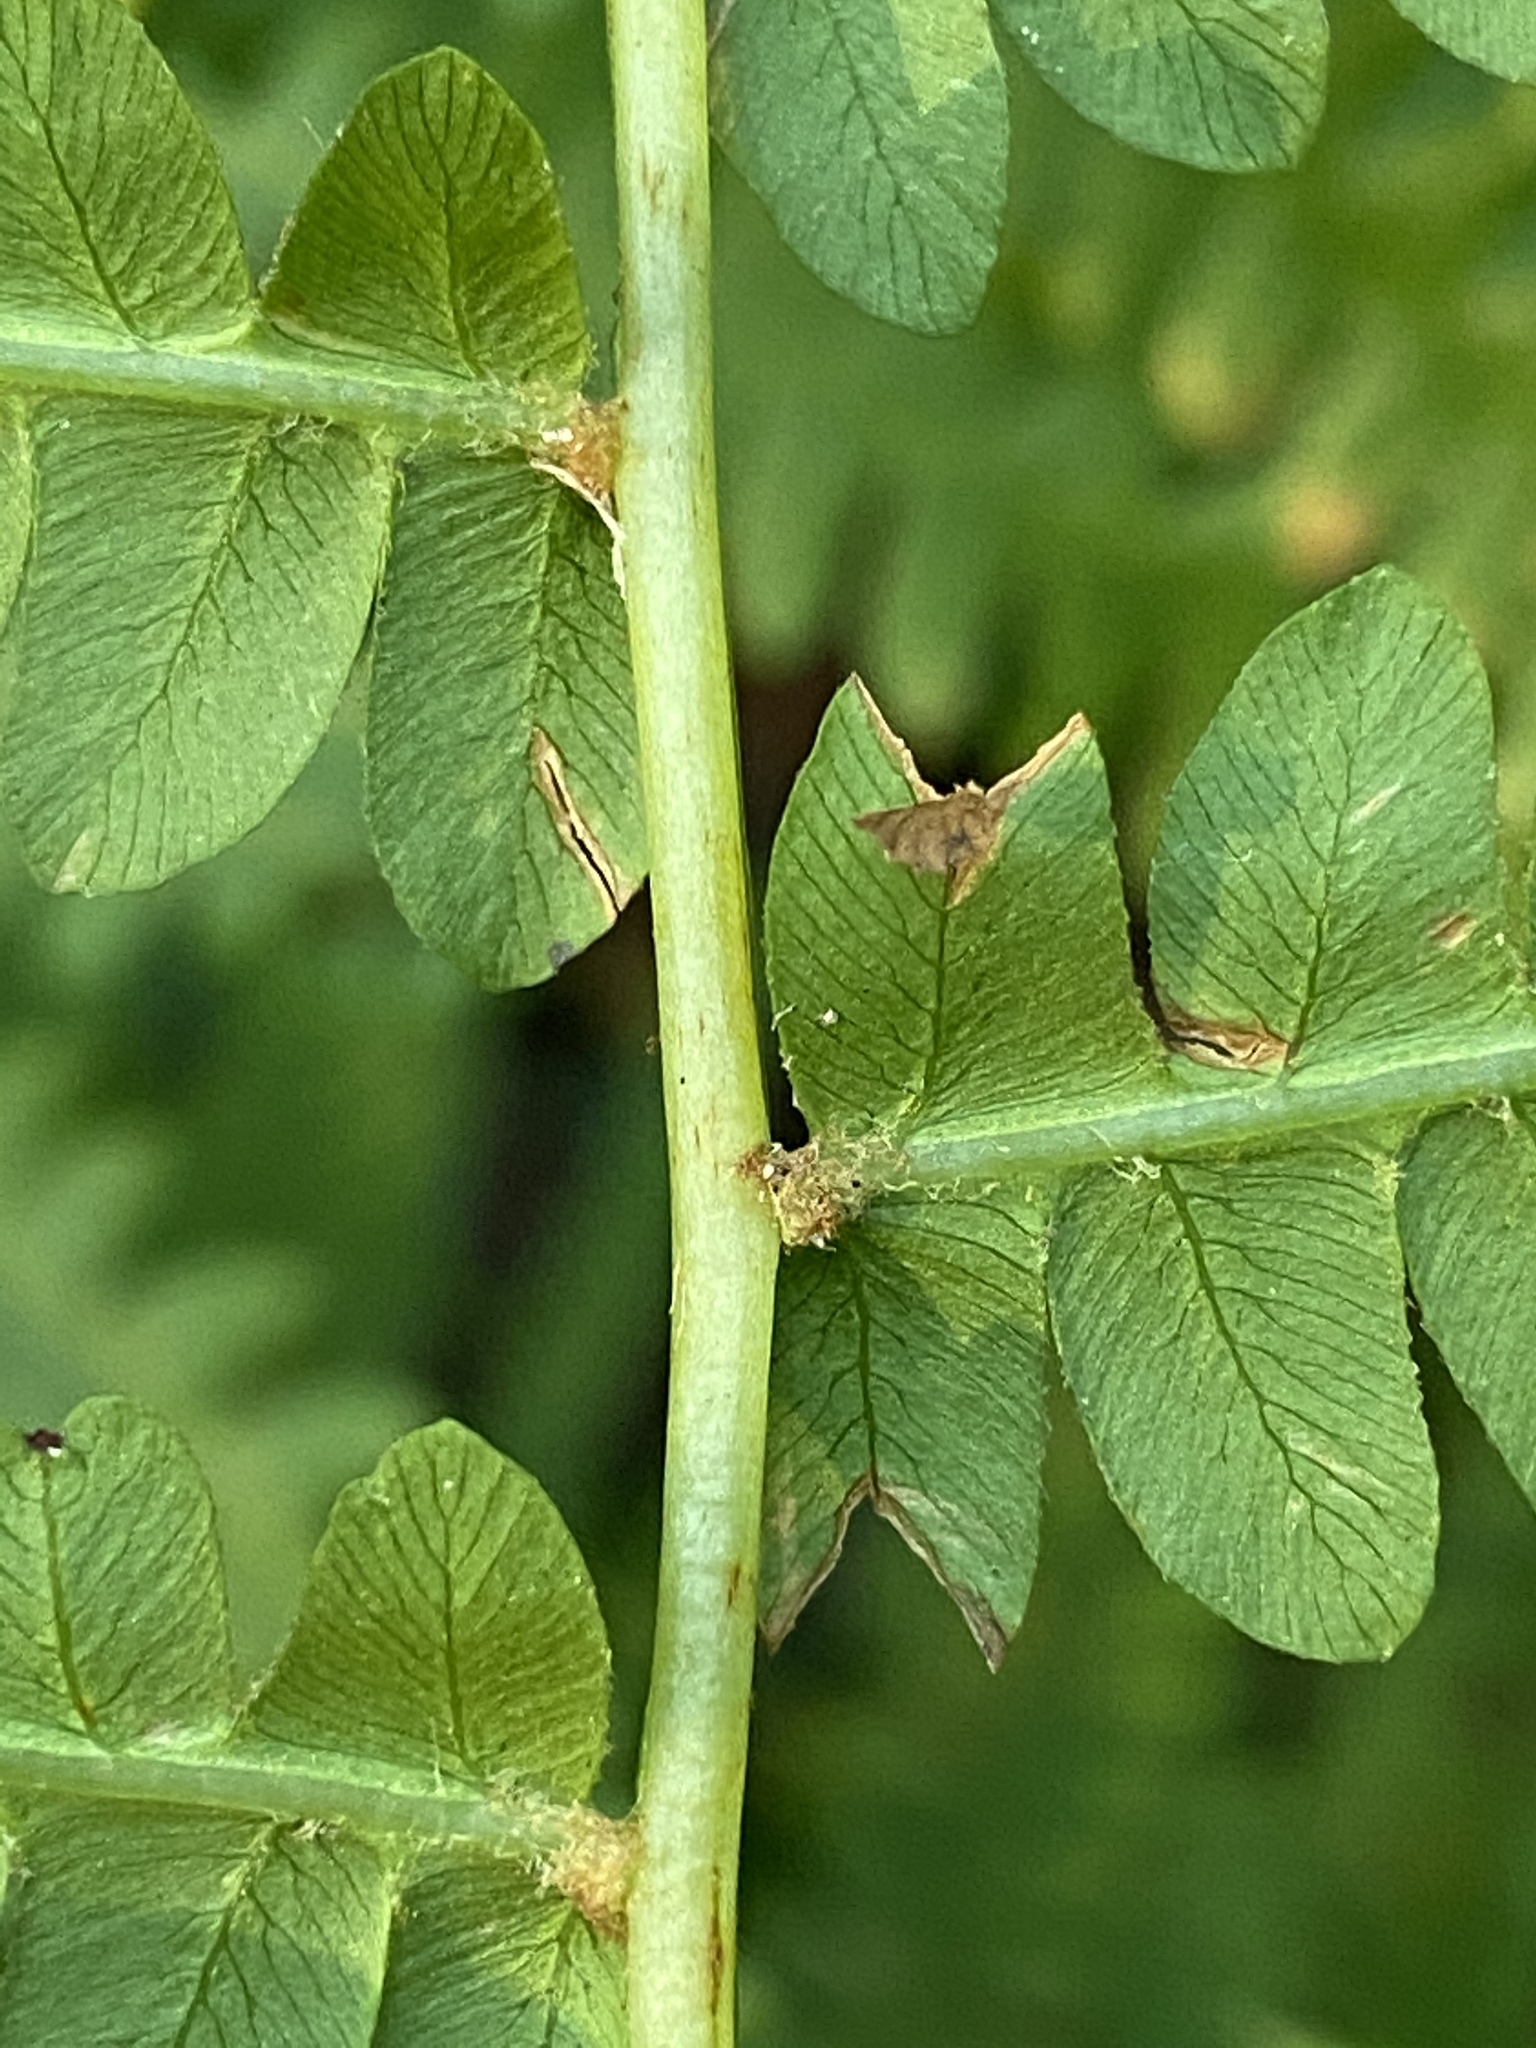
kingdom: Plantae
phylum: Tracheophyta
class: Polypodiopsida
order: Osmundales
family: Osmundaceae
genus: Osmundastrum
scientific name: Osmundastrum cinnamomeum
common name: Cinnamon fern
